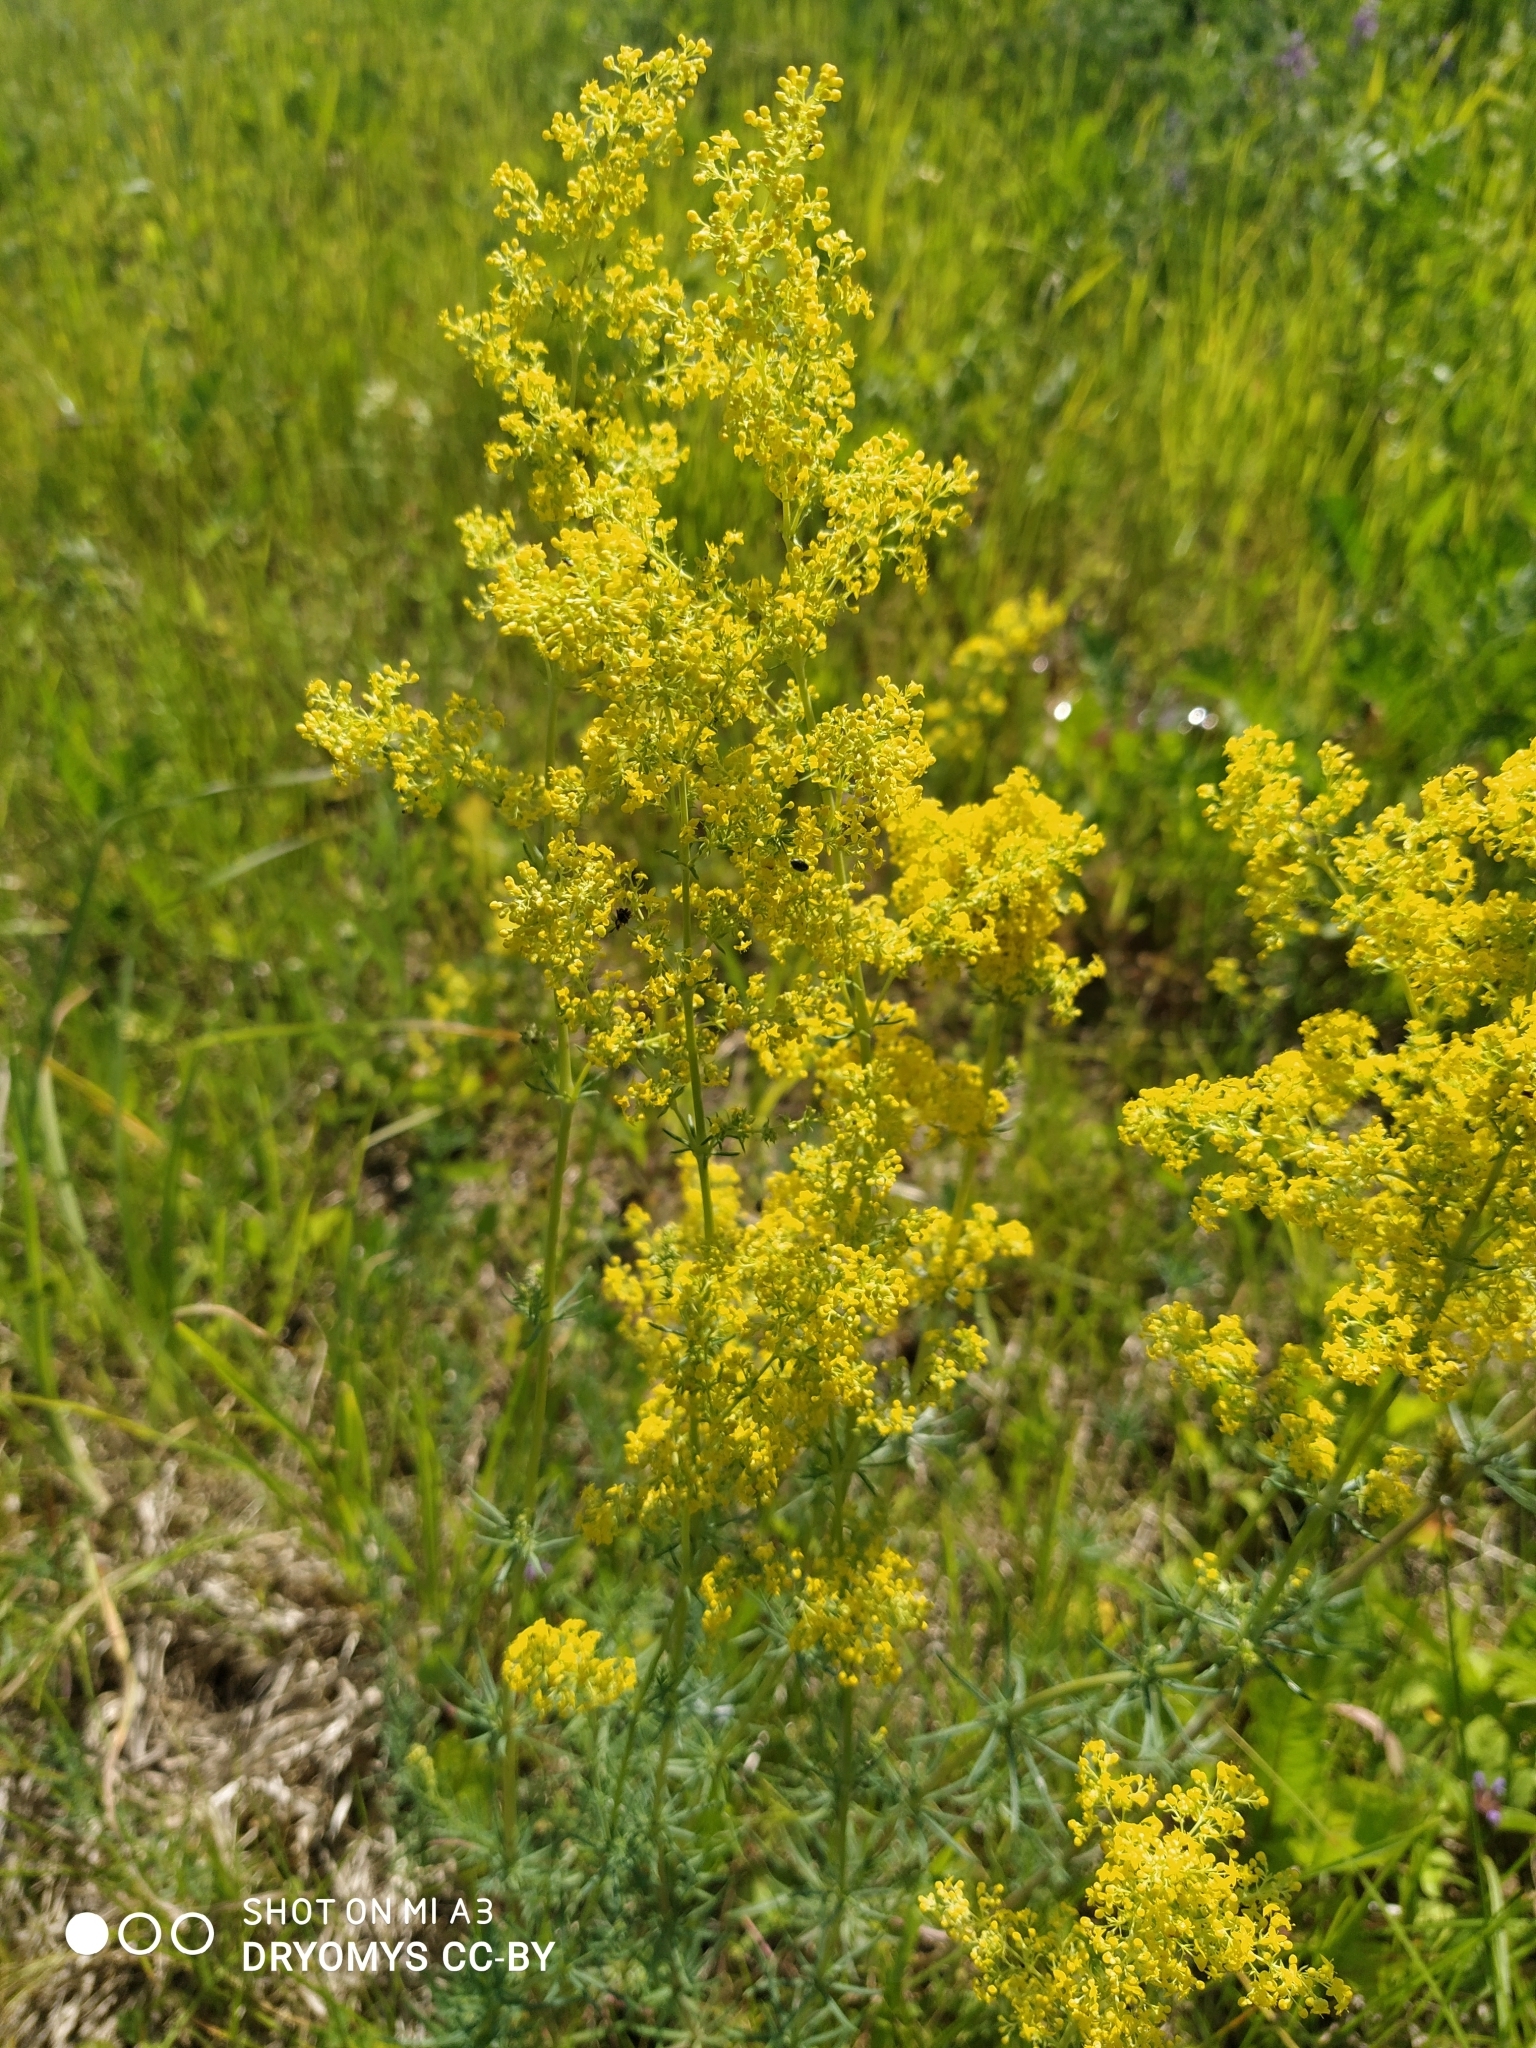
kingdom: Plantae
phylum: Tracheophyta
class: Magnoliopsida
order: Gentianales
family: Rubiaceae
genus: Galium
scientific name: Galium verum
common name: Lady's bedstraw
